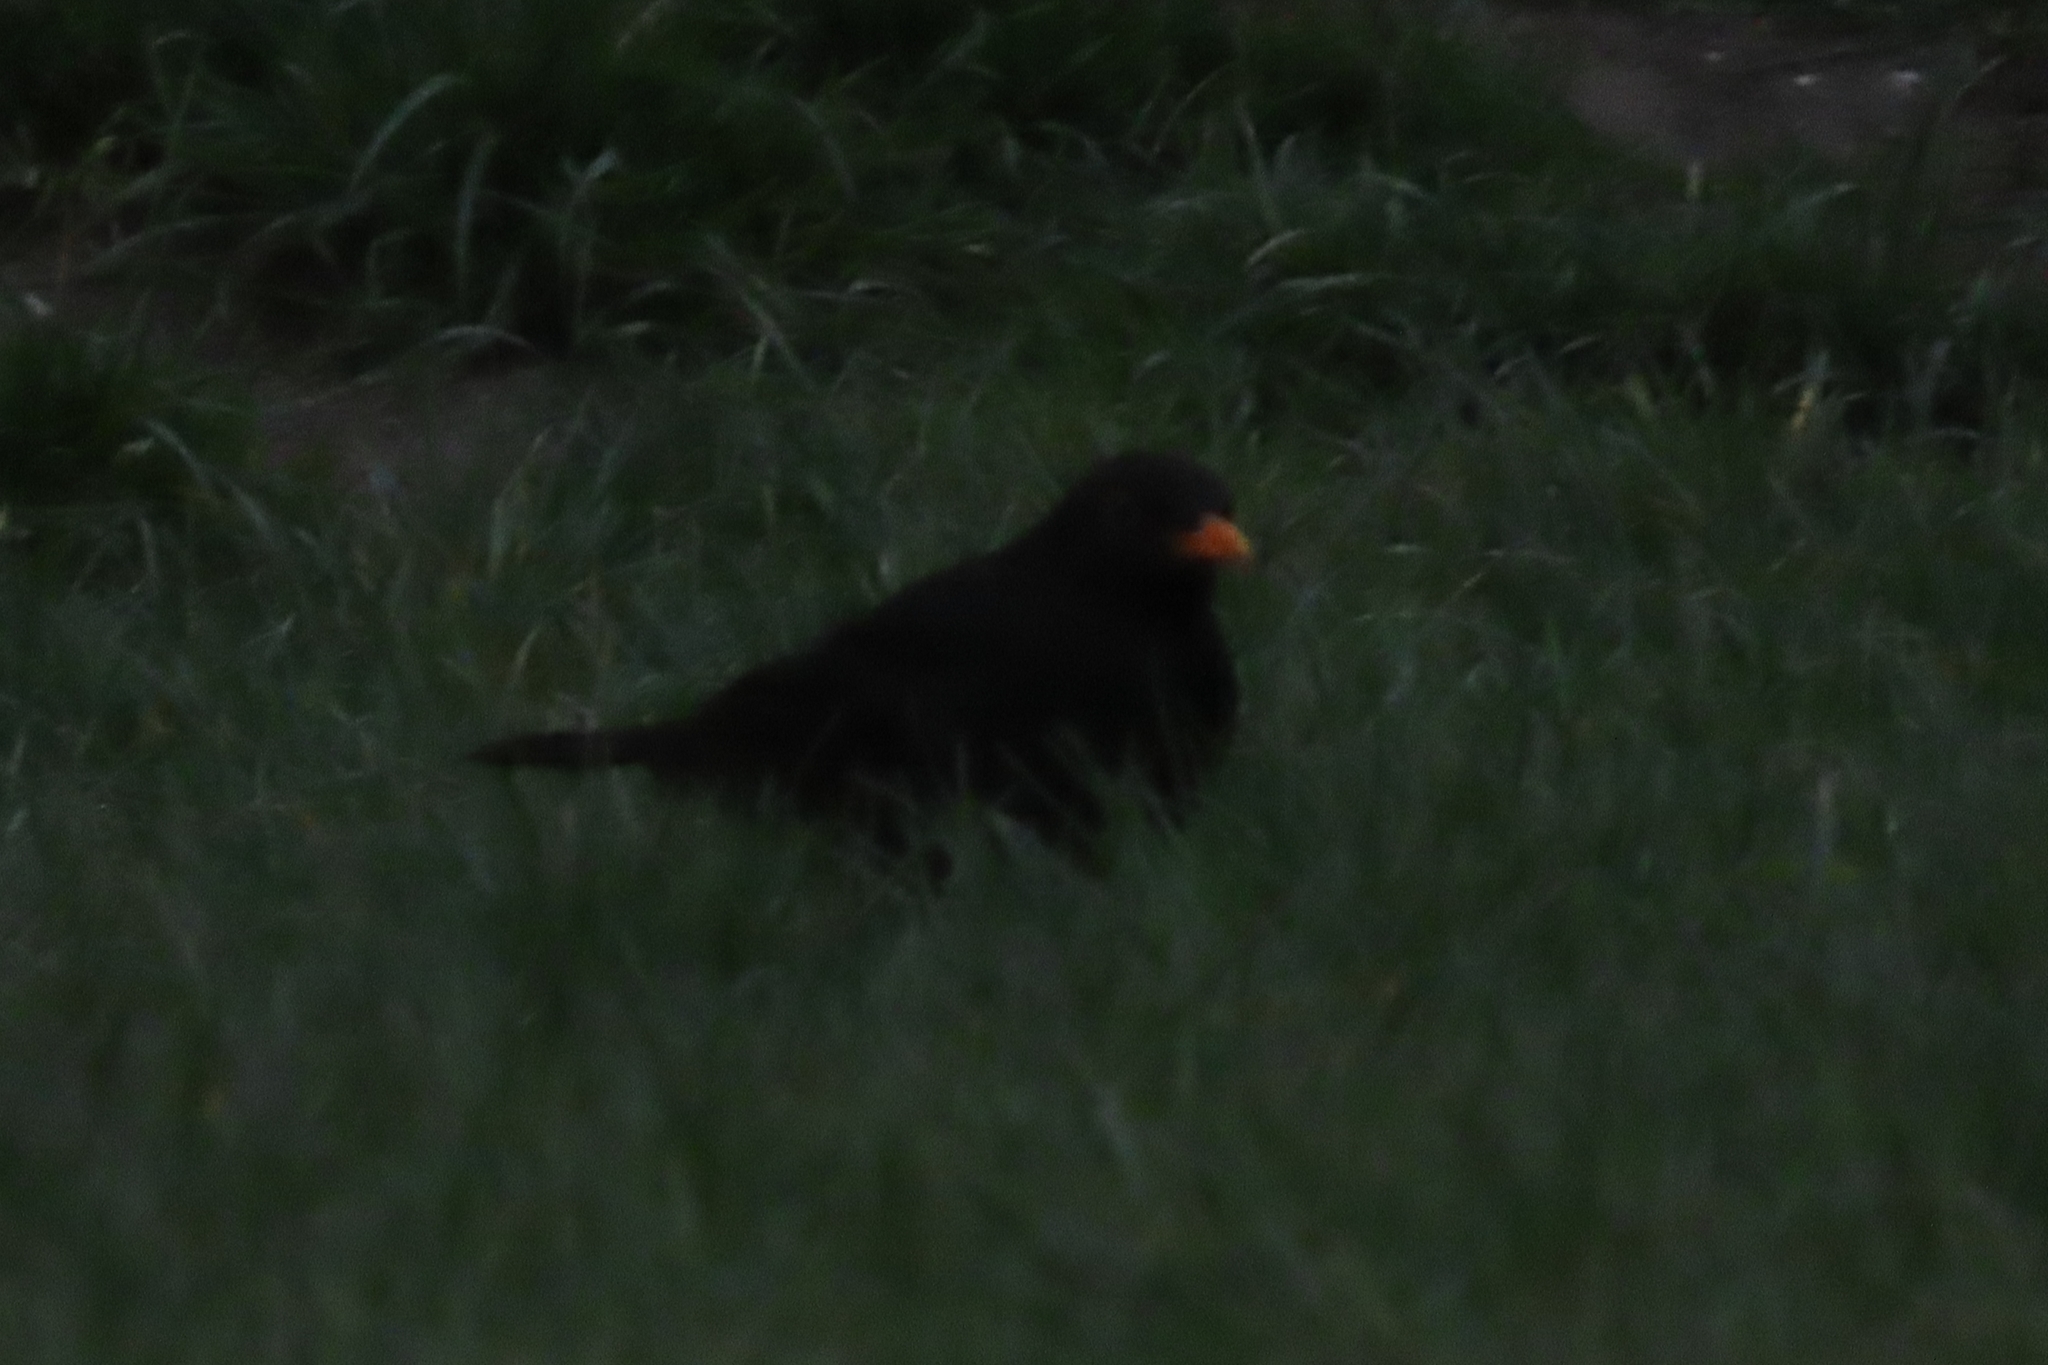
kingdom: Animalia
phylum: Chordata
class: Aves
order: Passeriformes
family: Turdidae
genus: Turdus
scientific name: Turdus merula
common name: Common blackbird
